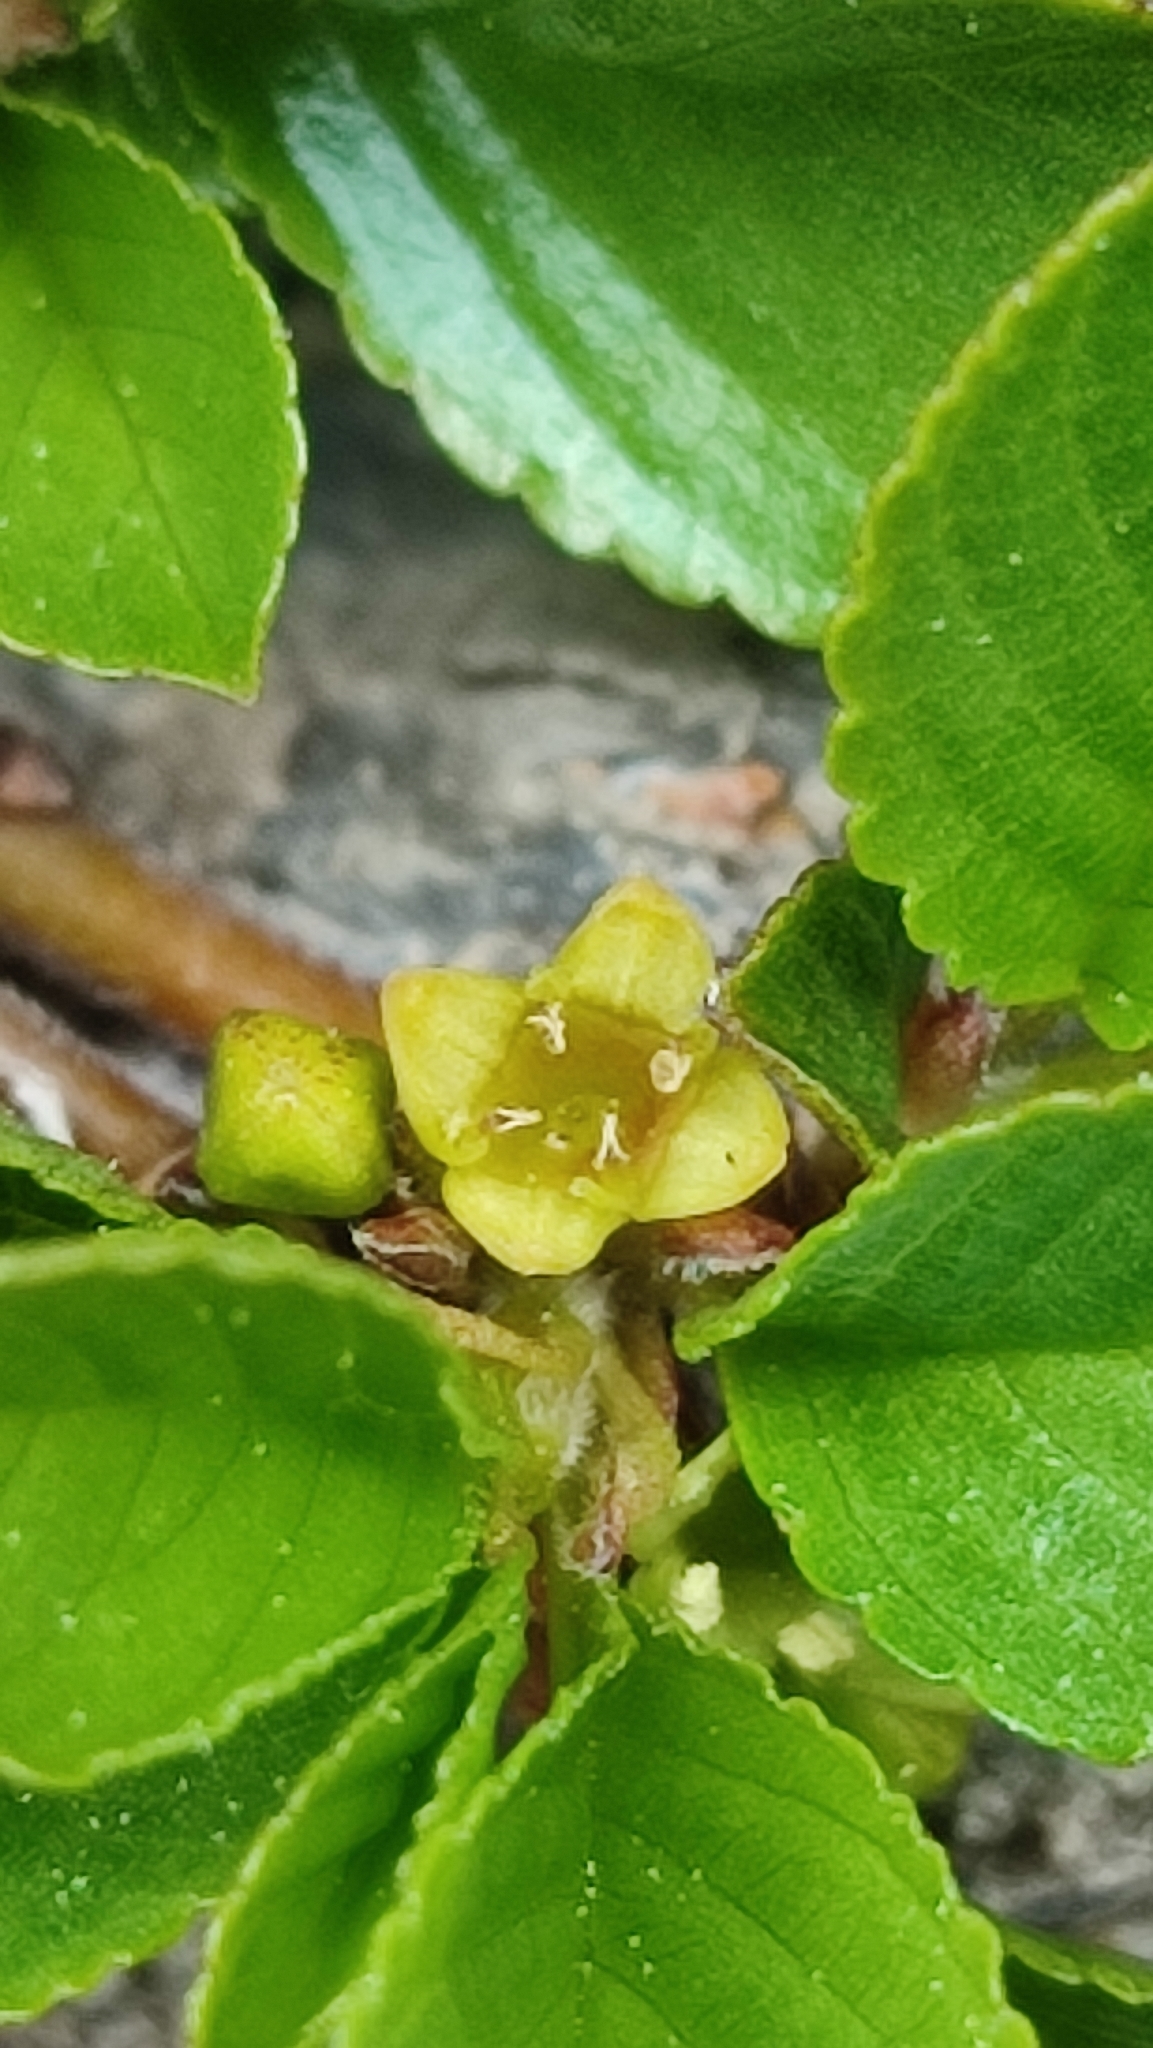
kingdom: Plantae
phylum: Tracheophyta
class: Magnoliopsida
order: Rosales
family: Rhamnaceae
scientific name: Rhamnaceae
